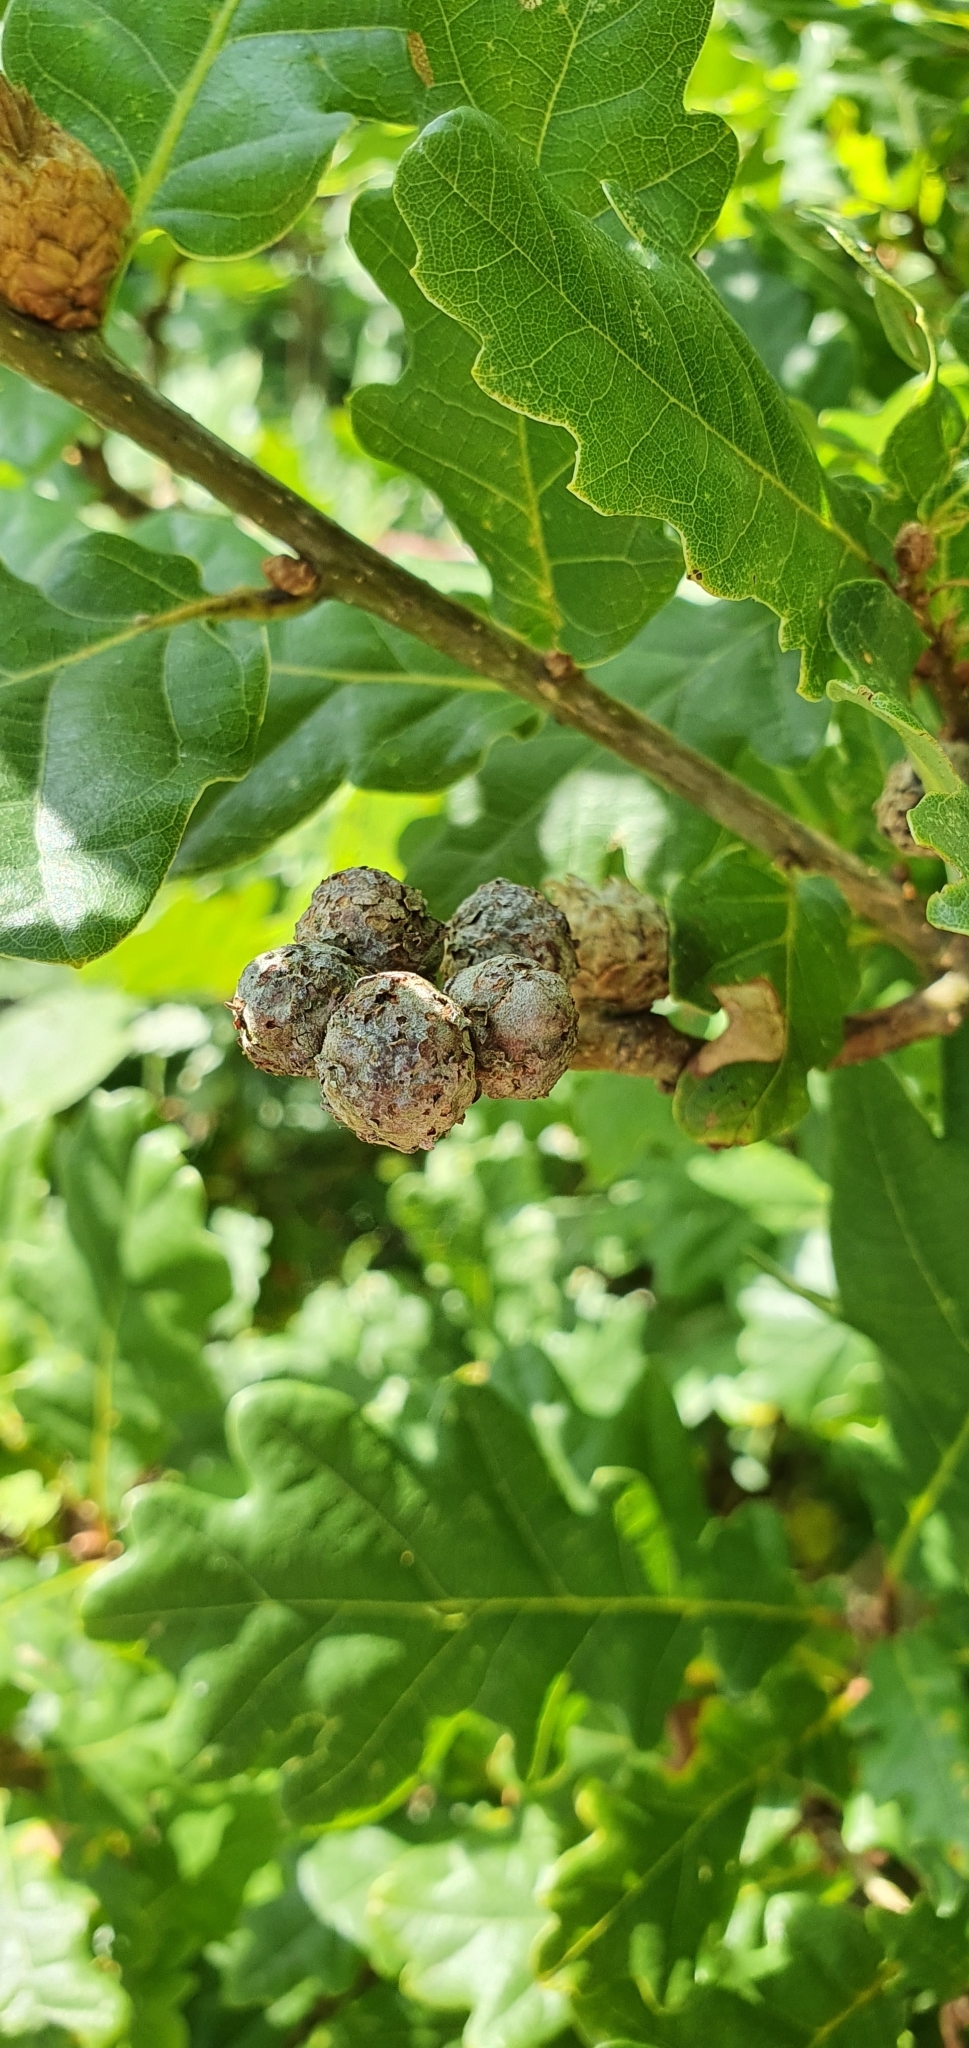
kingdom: Animalia
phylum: Arthropoda
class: Insecta
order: Hymenoptera
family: Cynipidae
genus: Andricus
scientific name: Andricus lignicolus
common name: Cola-nut gall
